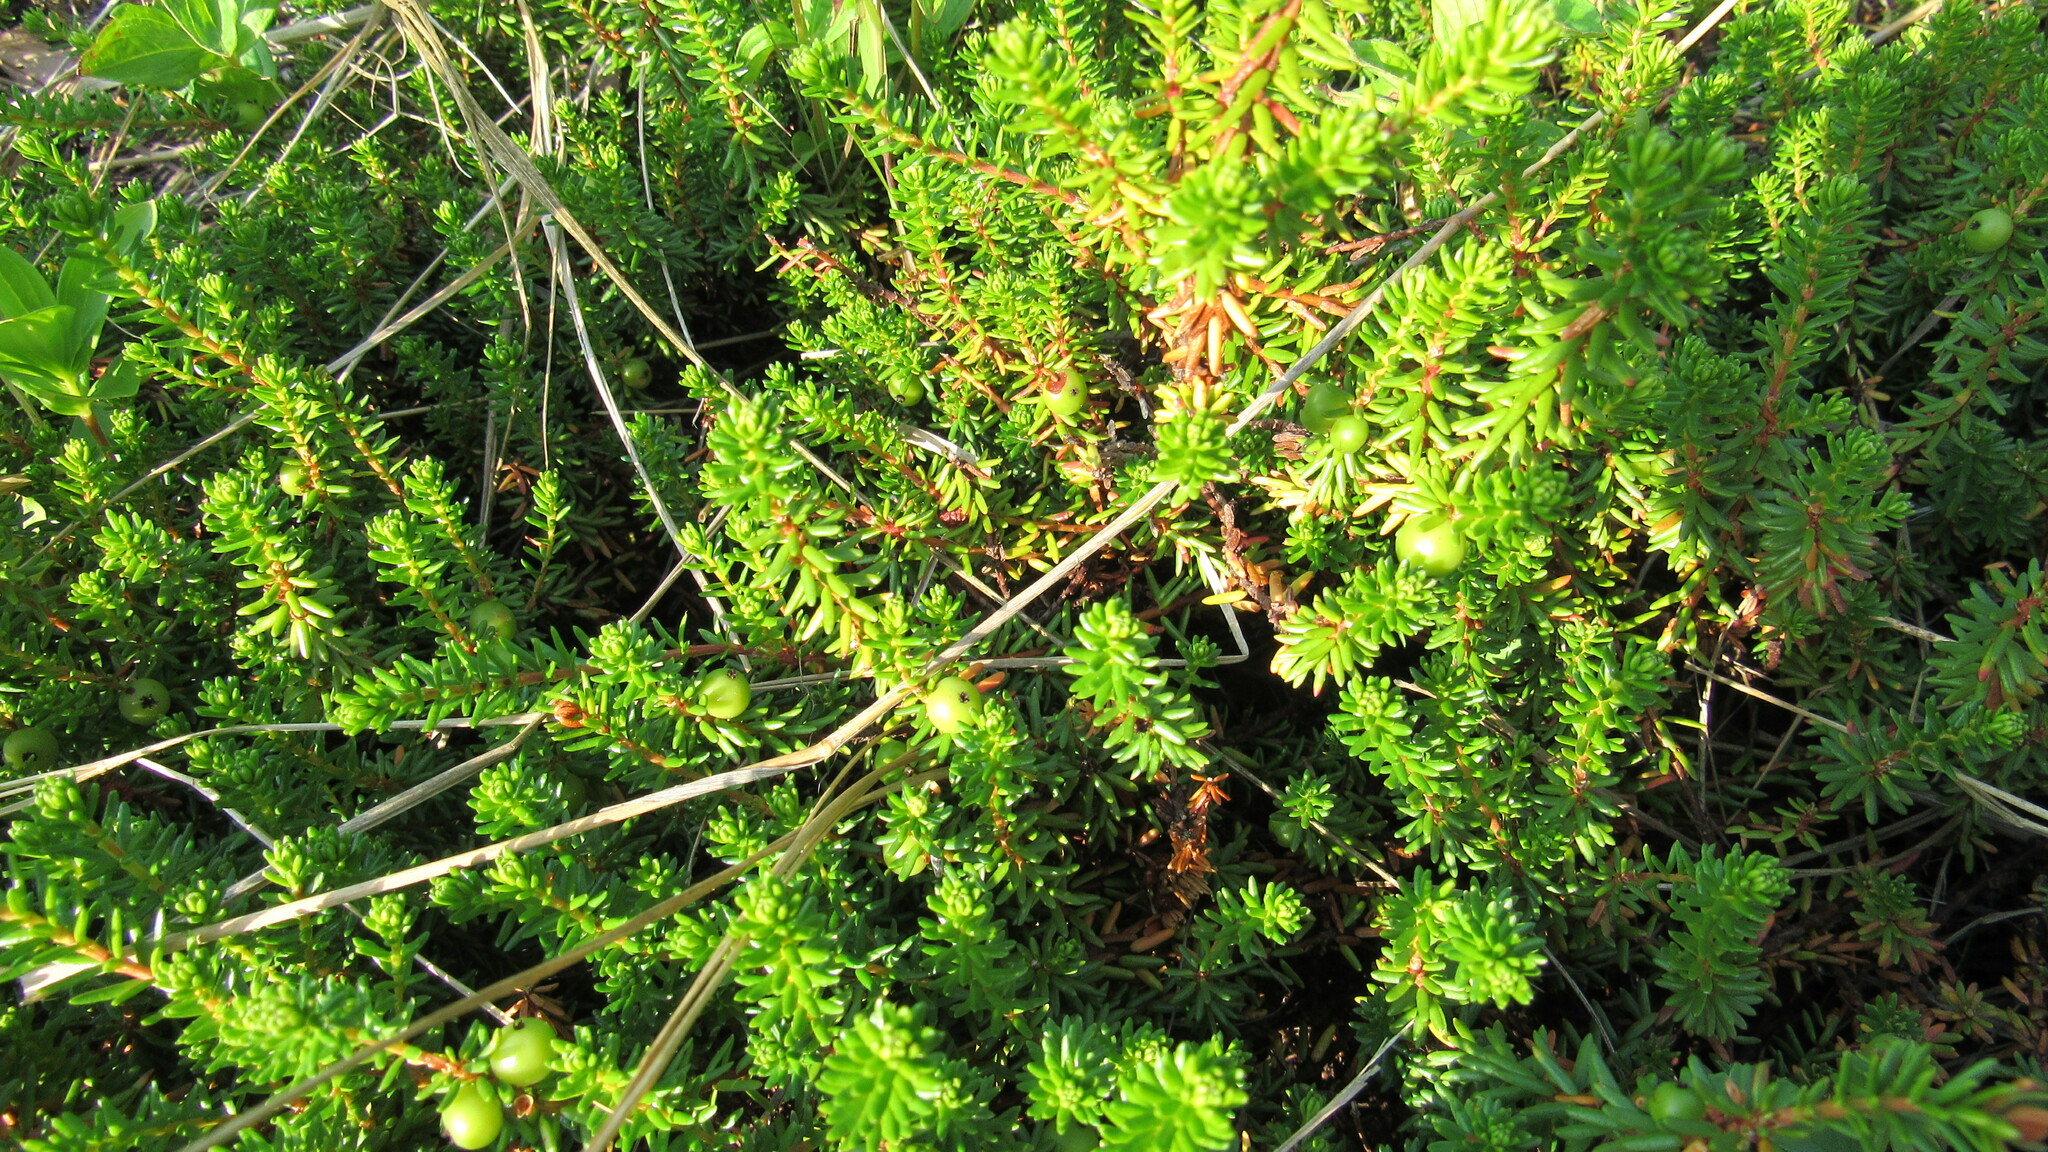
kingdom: Plantae
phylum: Tracheophyta
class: Magnoliopsida
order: Ericales
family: Ericaceae
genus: Empetrum
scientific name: Empetrum nigrum
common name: Black crowberry
